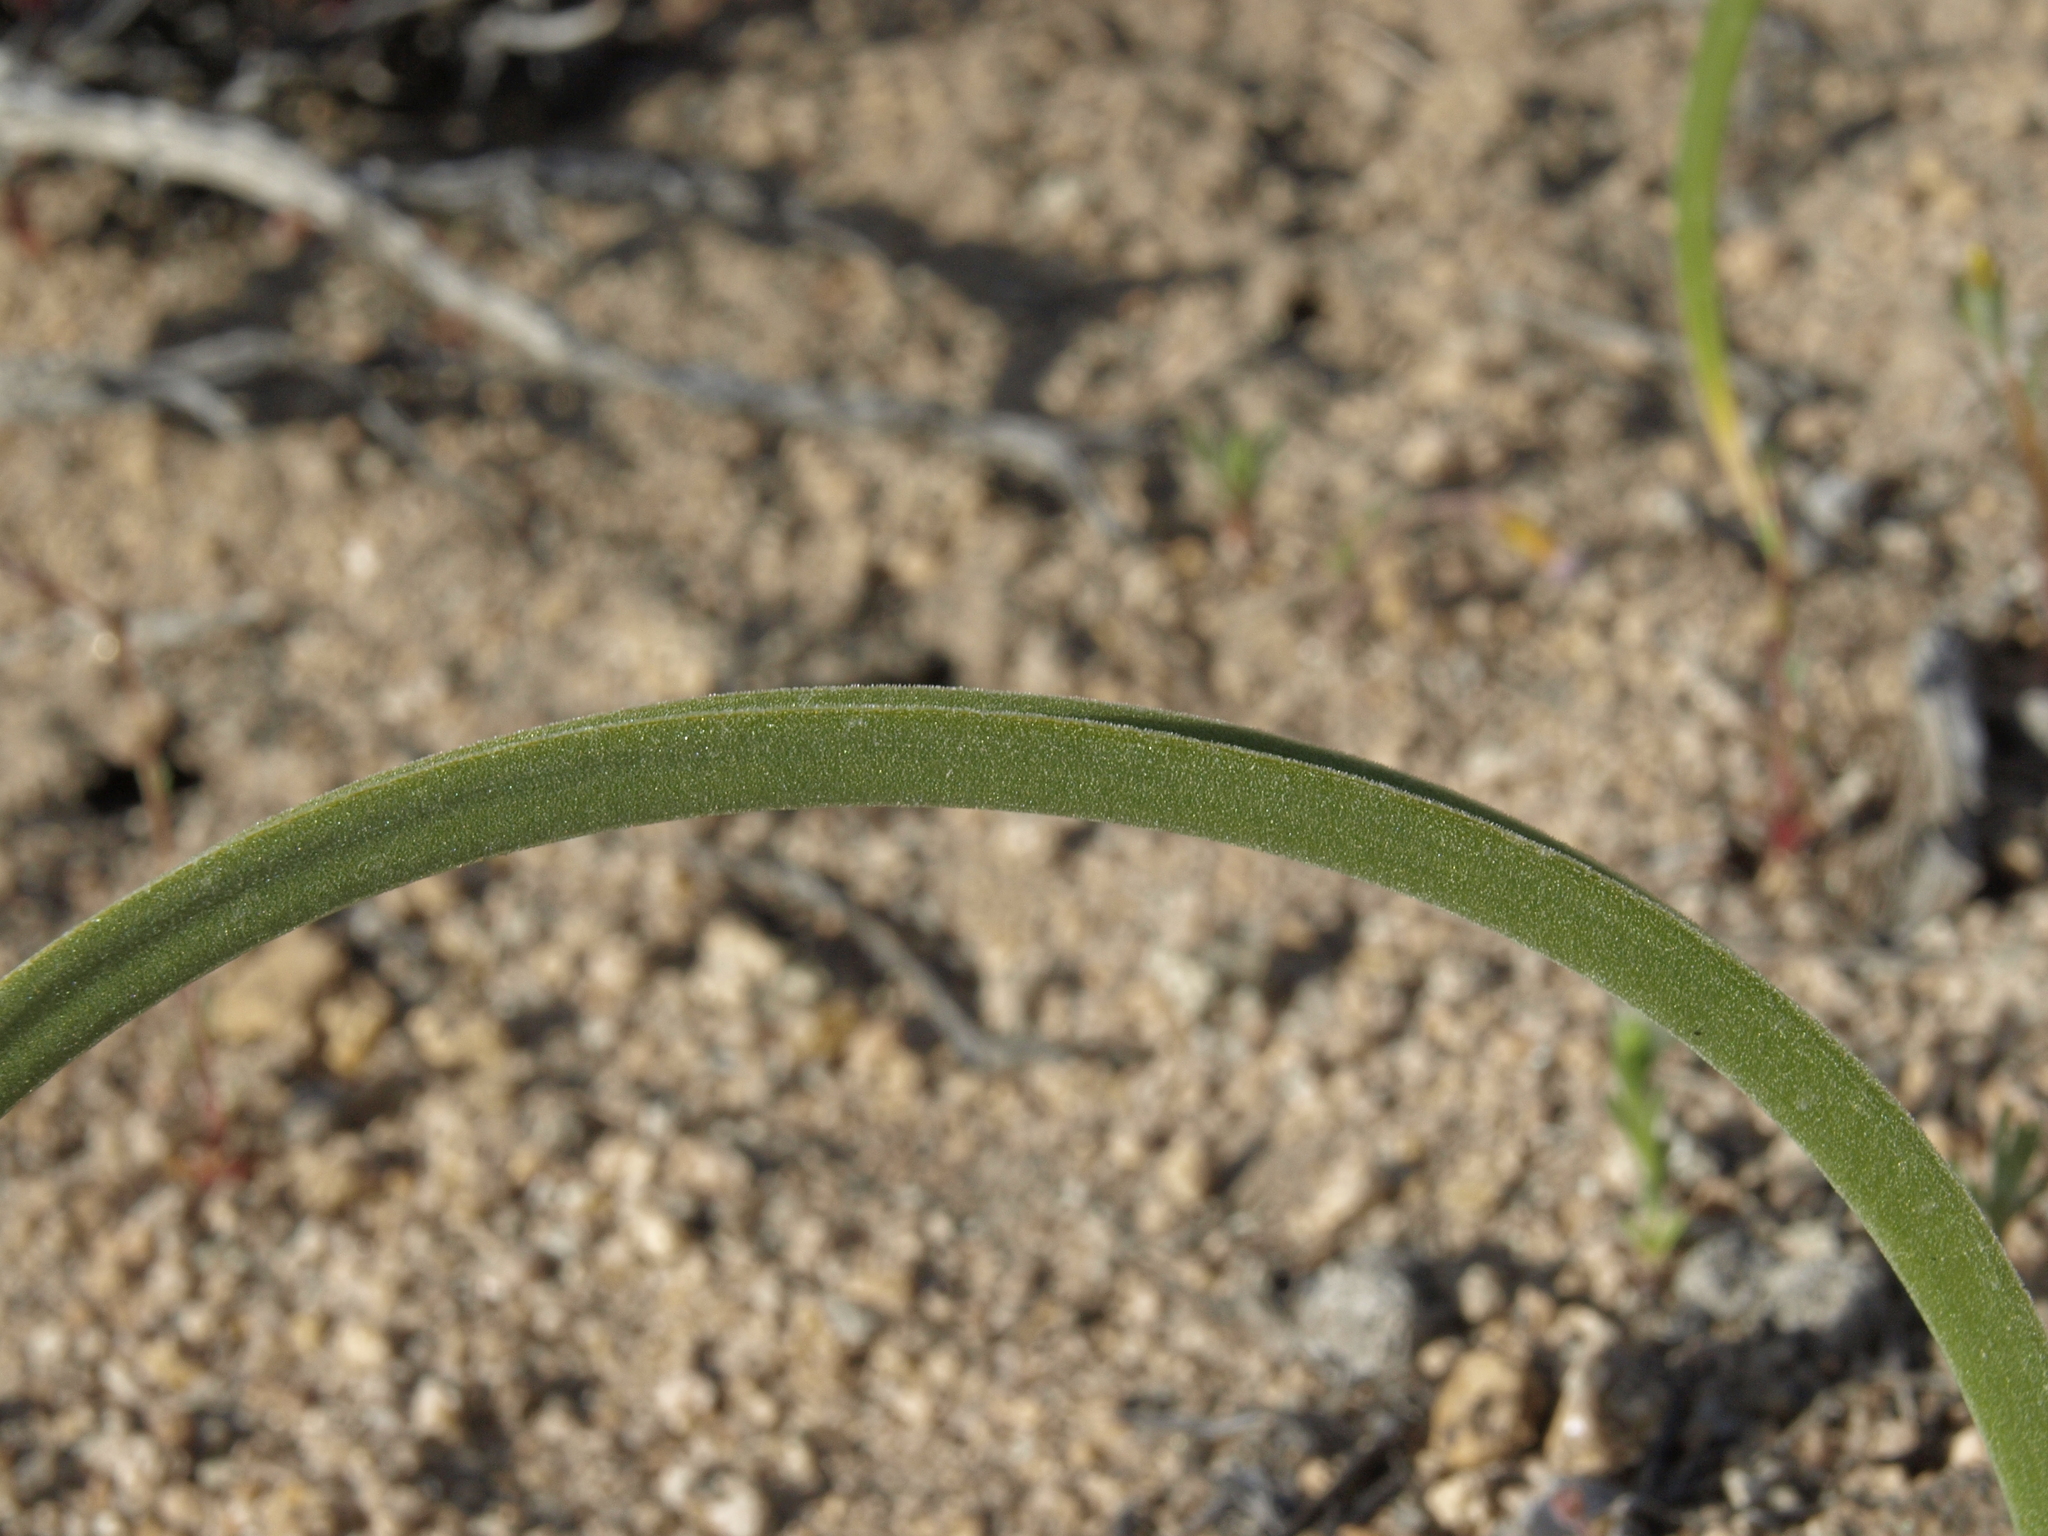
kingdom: Plantae
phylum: Tracheophyta
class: Liliopsida
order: Liliales
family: Melanthiaceae
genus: Toxicoscordion
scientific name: Toxicoscordion paniculatum
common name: Foothill death camas
